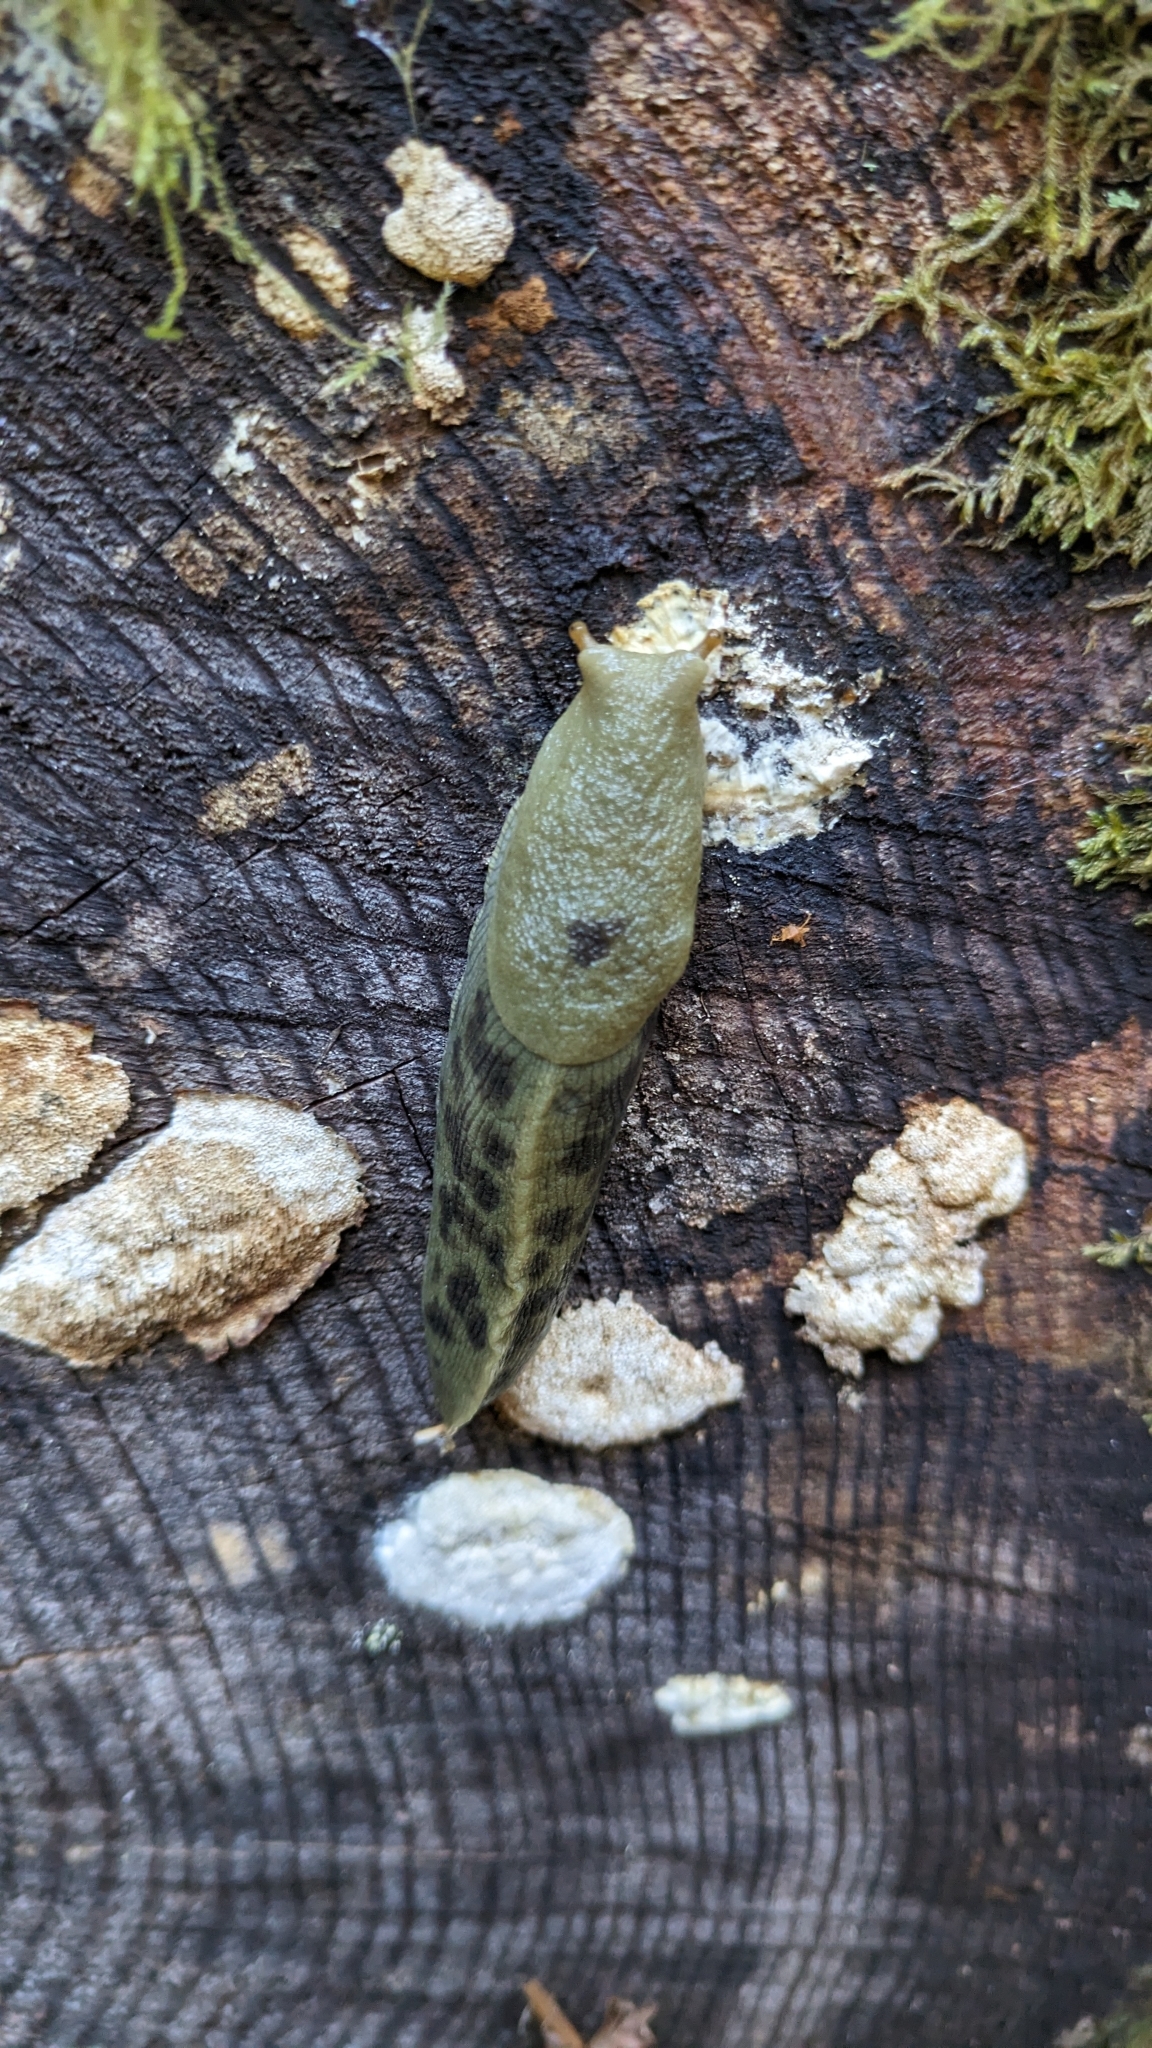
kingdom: Animalia
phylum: Mollusca
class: Gastropoda
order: Stylommatophora
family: Ariolimacidae
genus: Ariolimax
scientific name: Ariolimax columbianus
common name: Pacific banana slug
